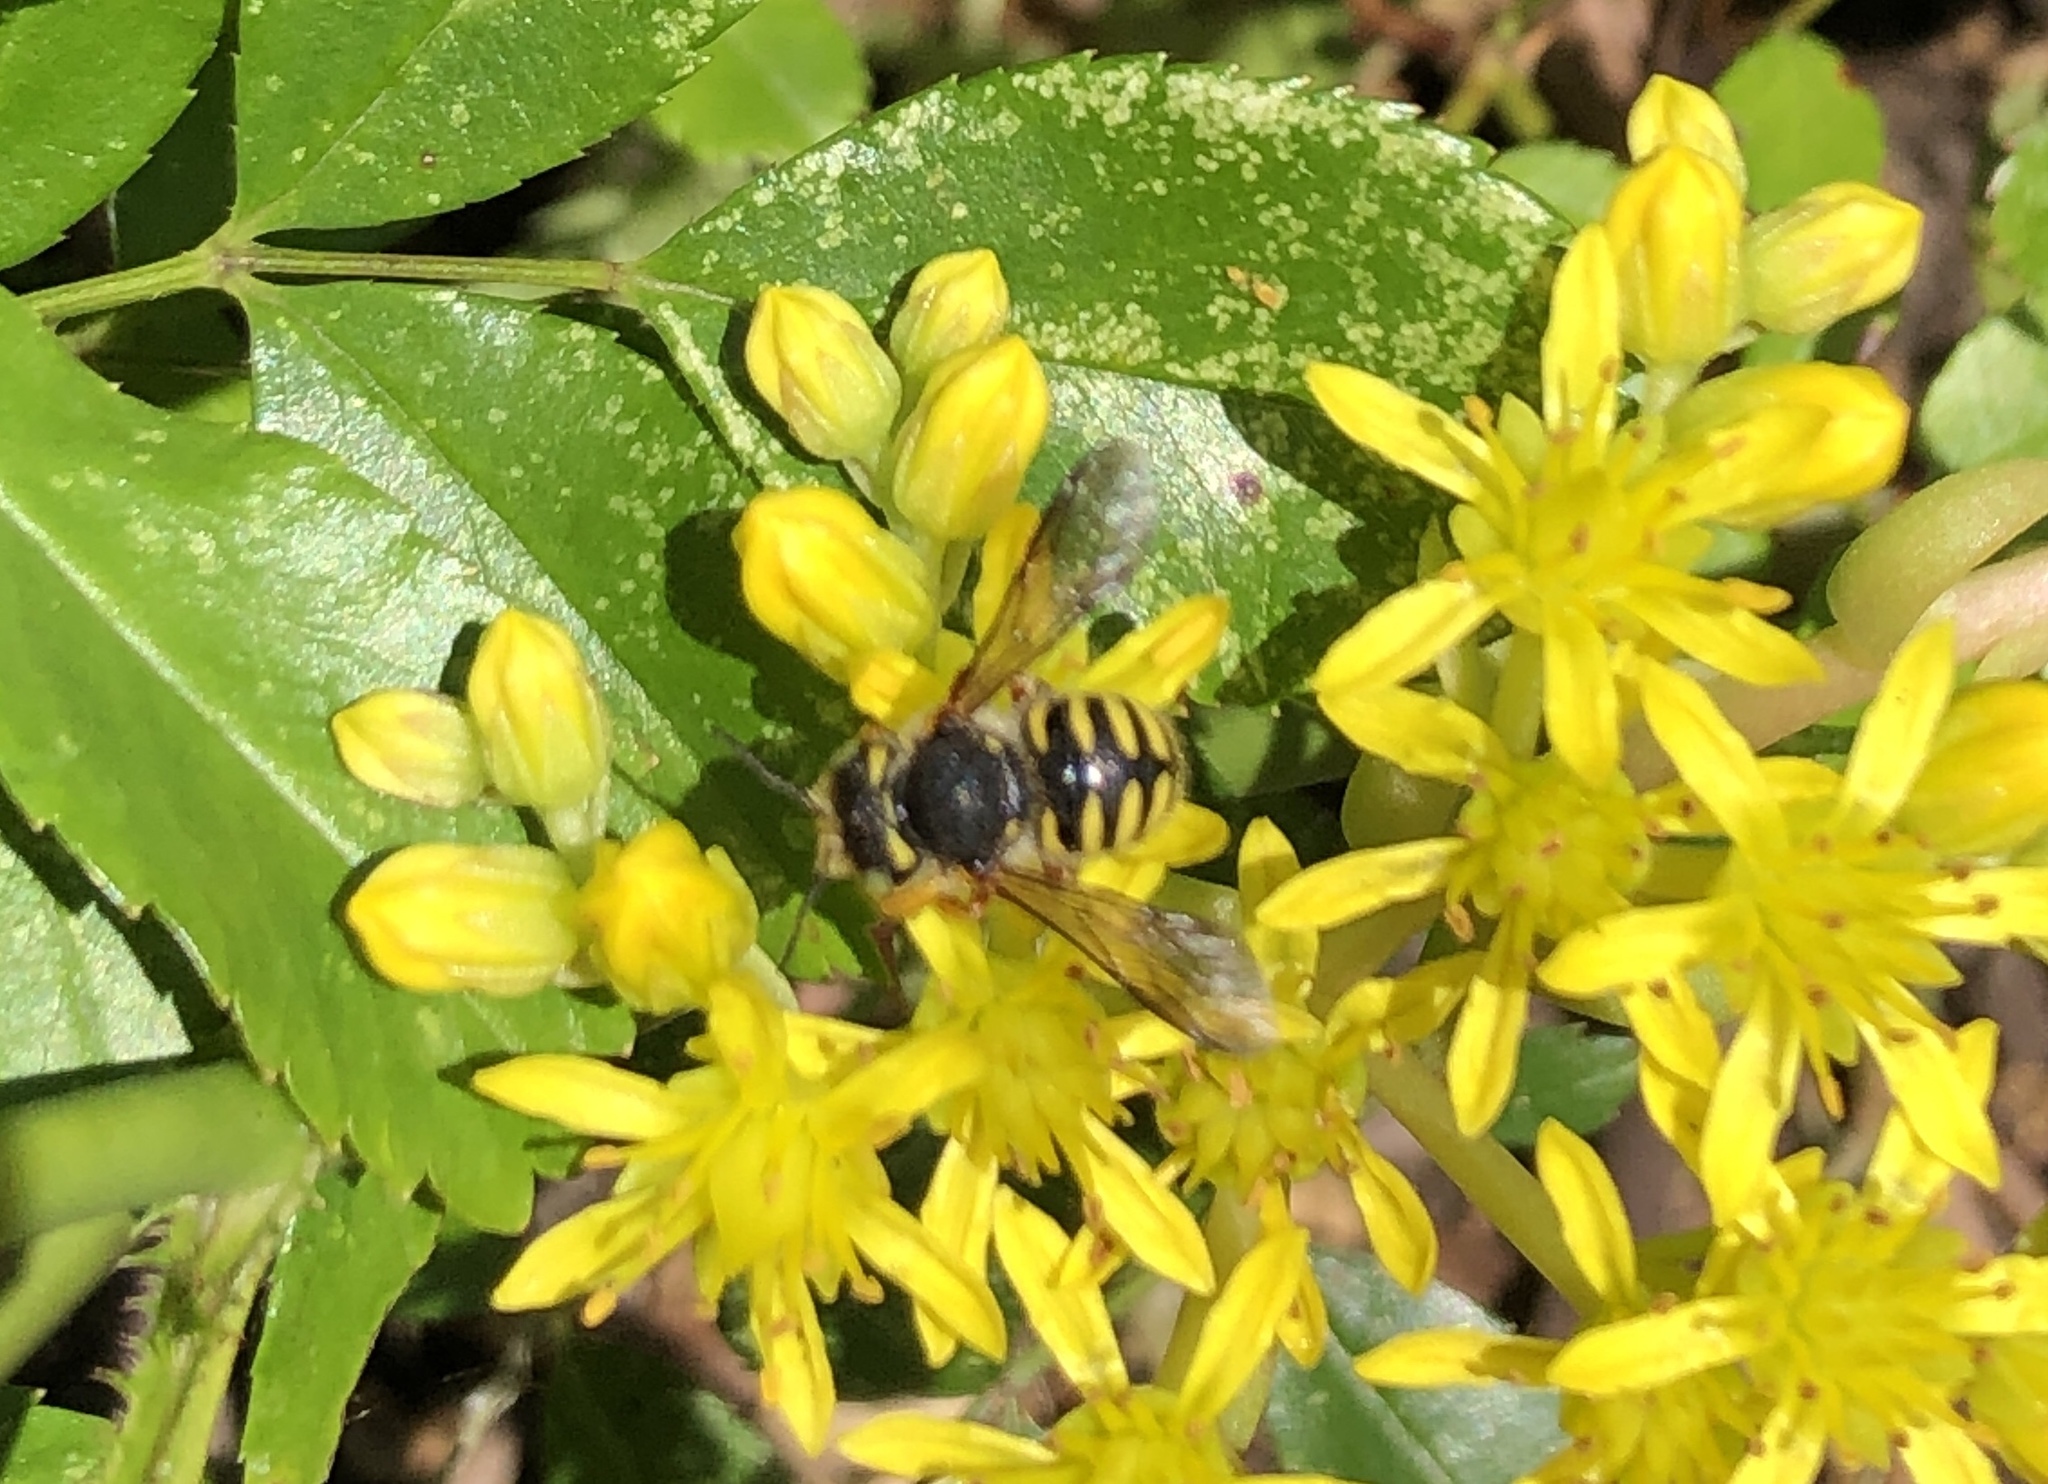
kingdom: Animalia
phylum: Arthropoda
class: Insecta
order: Hymenoptera
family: Megachilidae
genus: Anthidium
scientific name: Anthidium oblongatum
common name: Oblong wool carder bee
